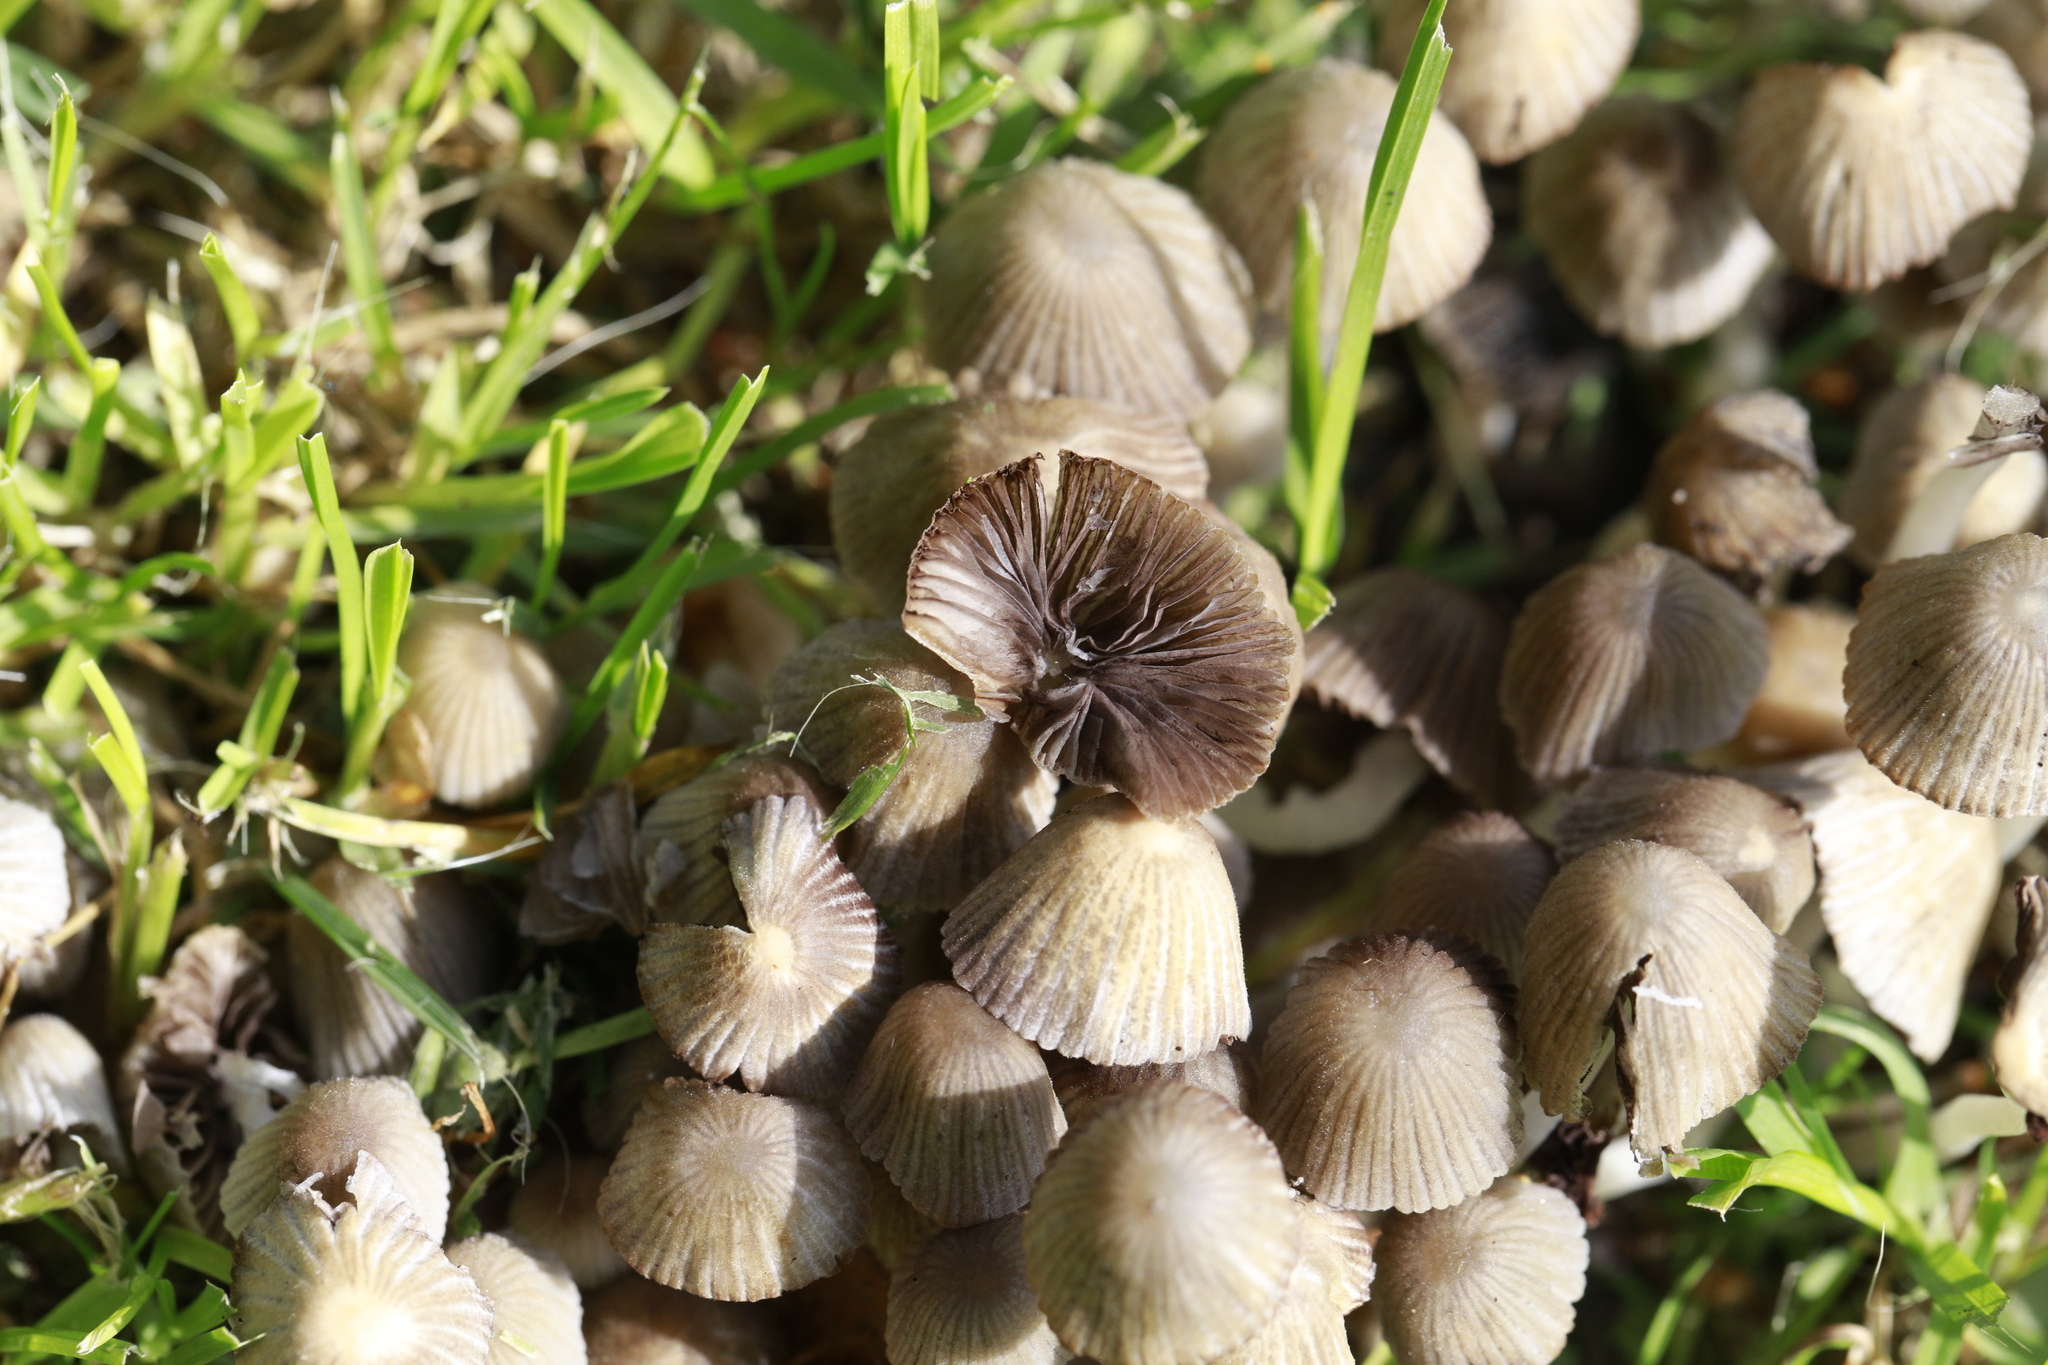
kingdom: Fungi
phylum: Basidiomycota
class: Agaricomycetes
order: Agaricales
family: Psathyrellaceae
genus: Coprinellus
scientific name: Coprinellus disseminatus
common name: Fairies' bonnets
